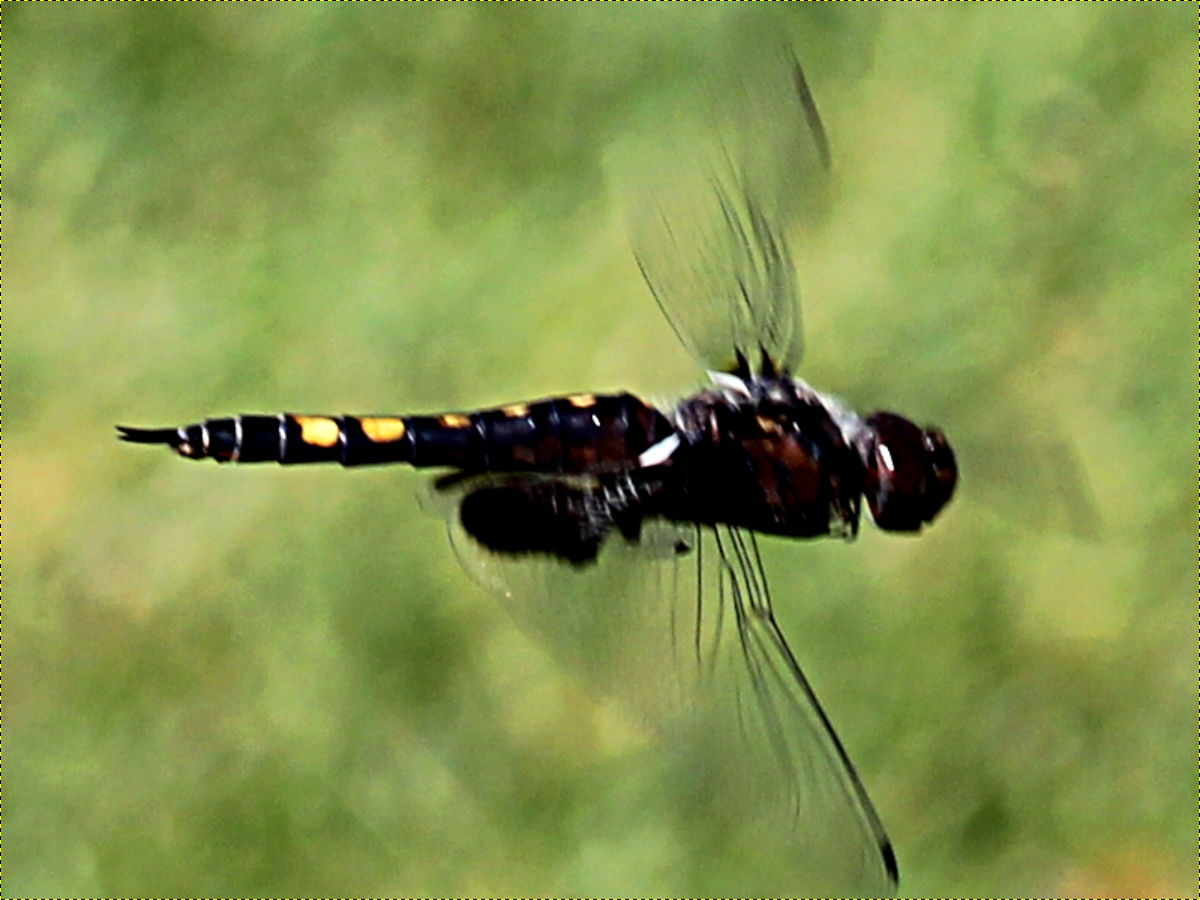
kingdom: Animalia
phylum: Arthropoda
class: Insecta
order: Odonata
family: Libellulidae
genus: Tramea
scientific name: Tramea lacerata
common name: Black saddlebags
